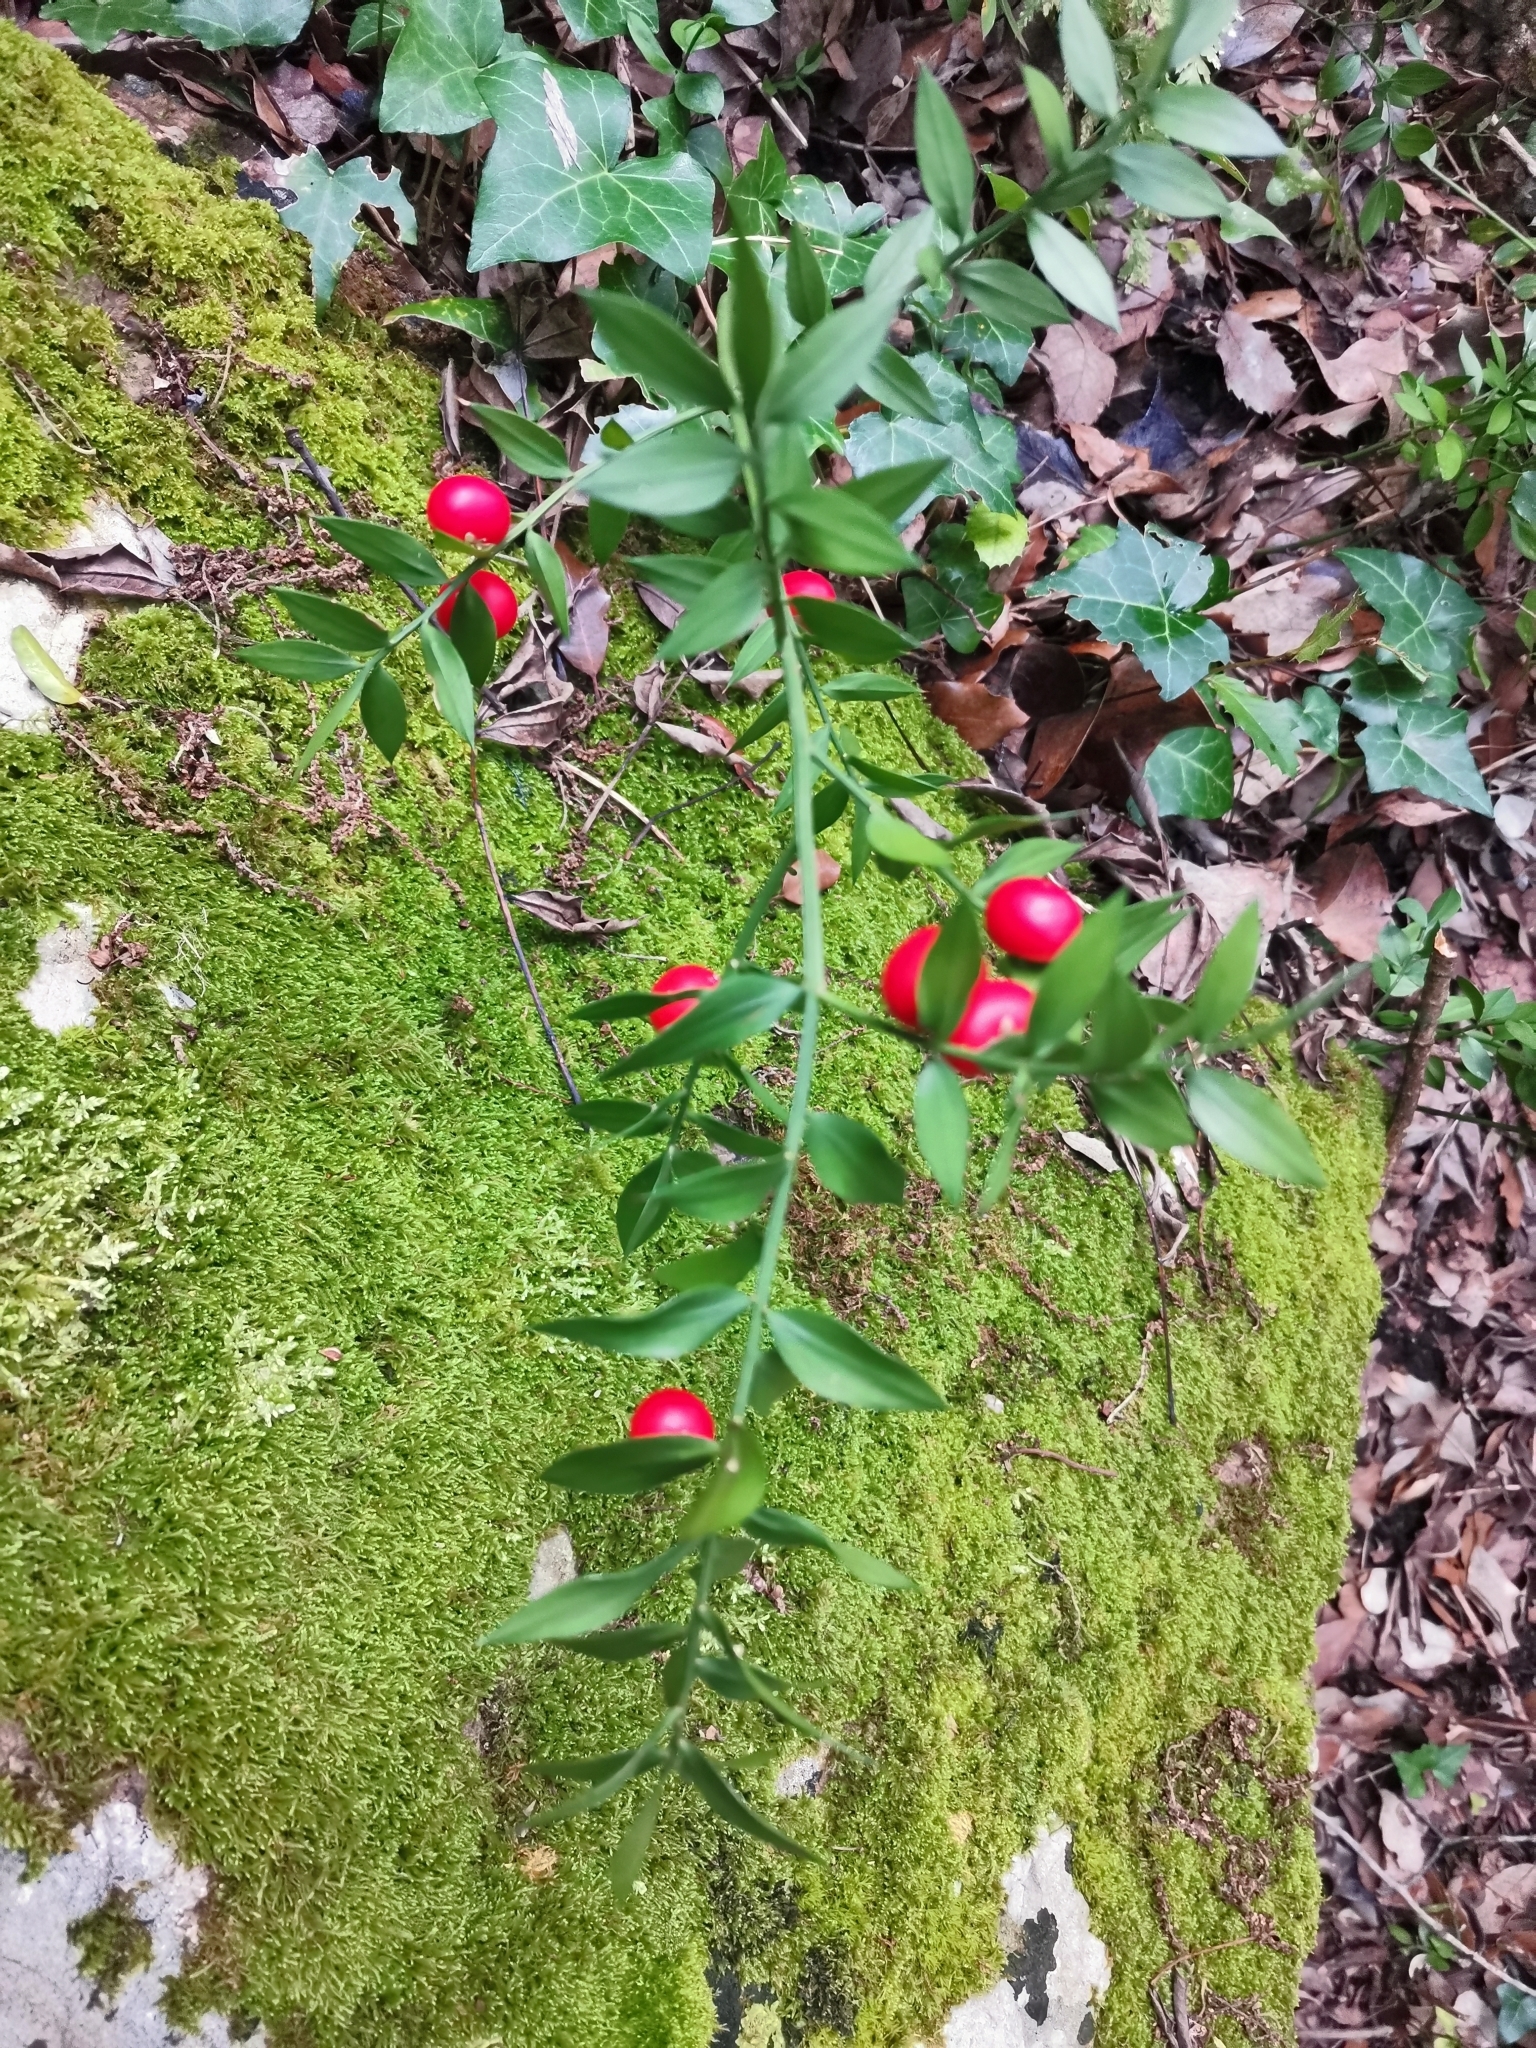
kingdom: Plantae
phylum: Tracheophyta
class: Liliopsida
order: Asparagales
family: Asparagaceae
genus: Ruscus
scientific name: Ruscus aculeatus
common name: Butcher's-broom
